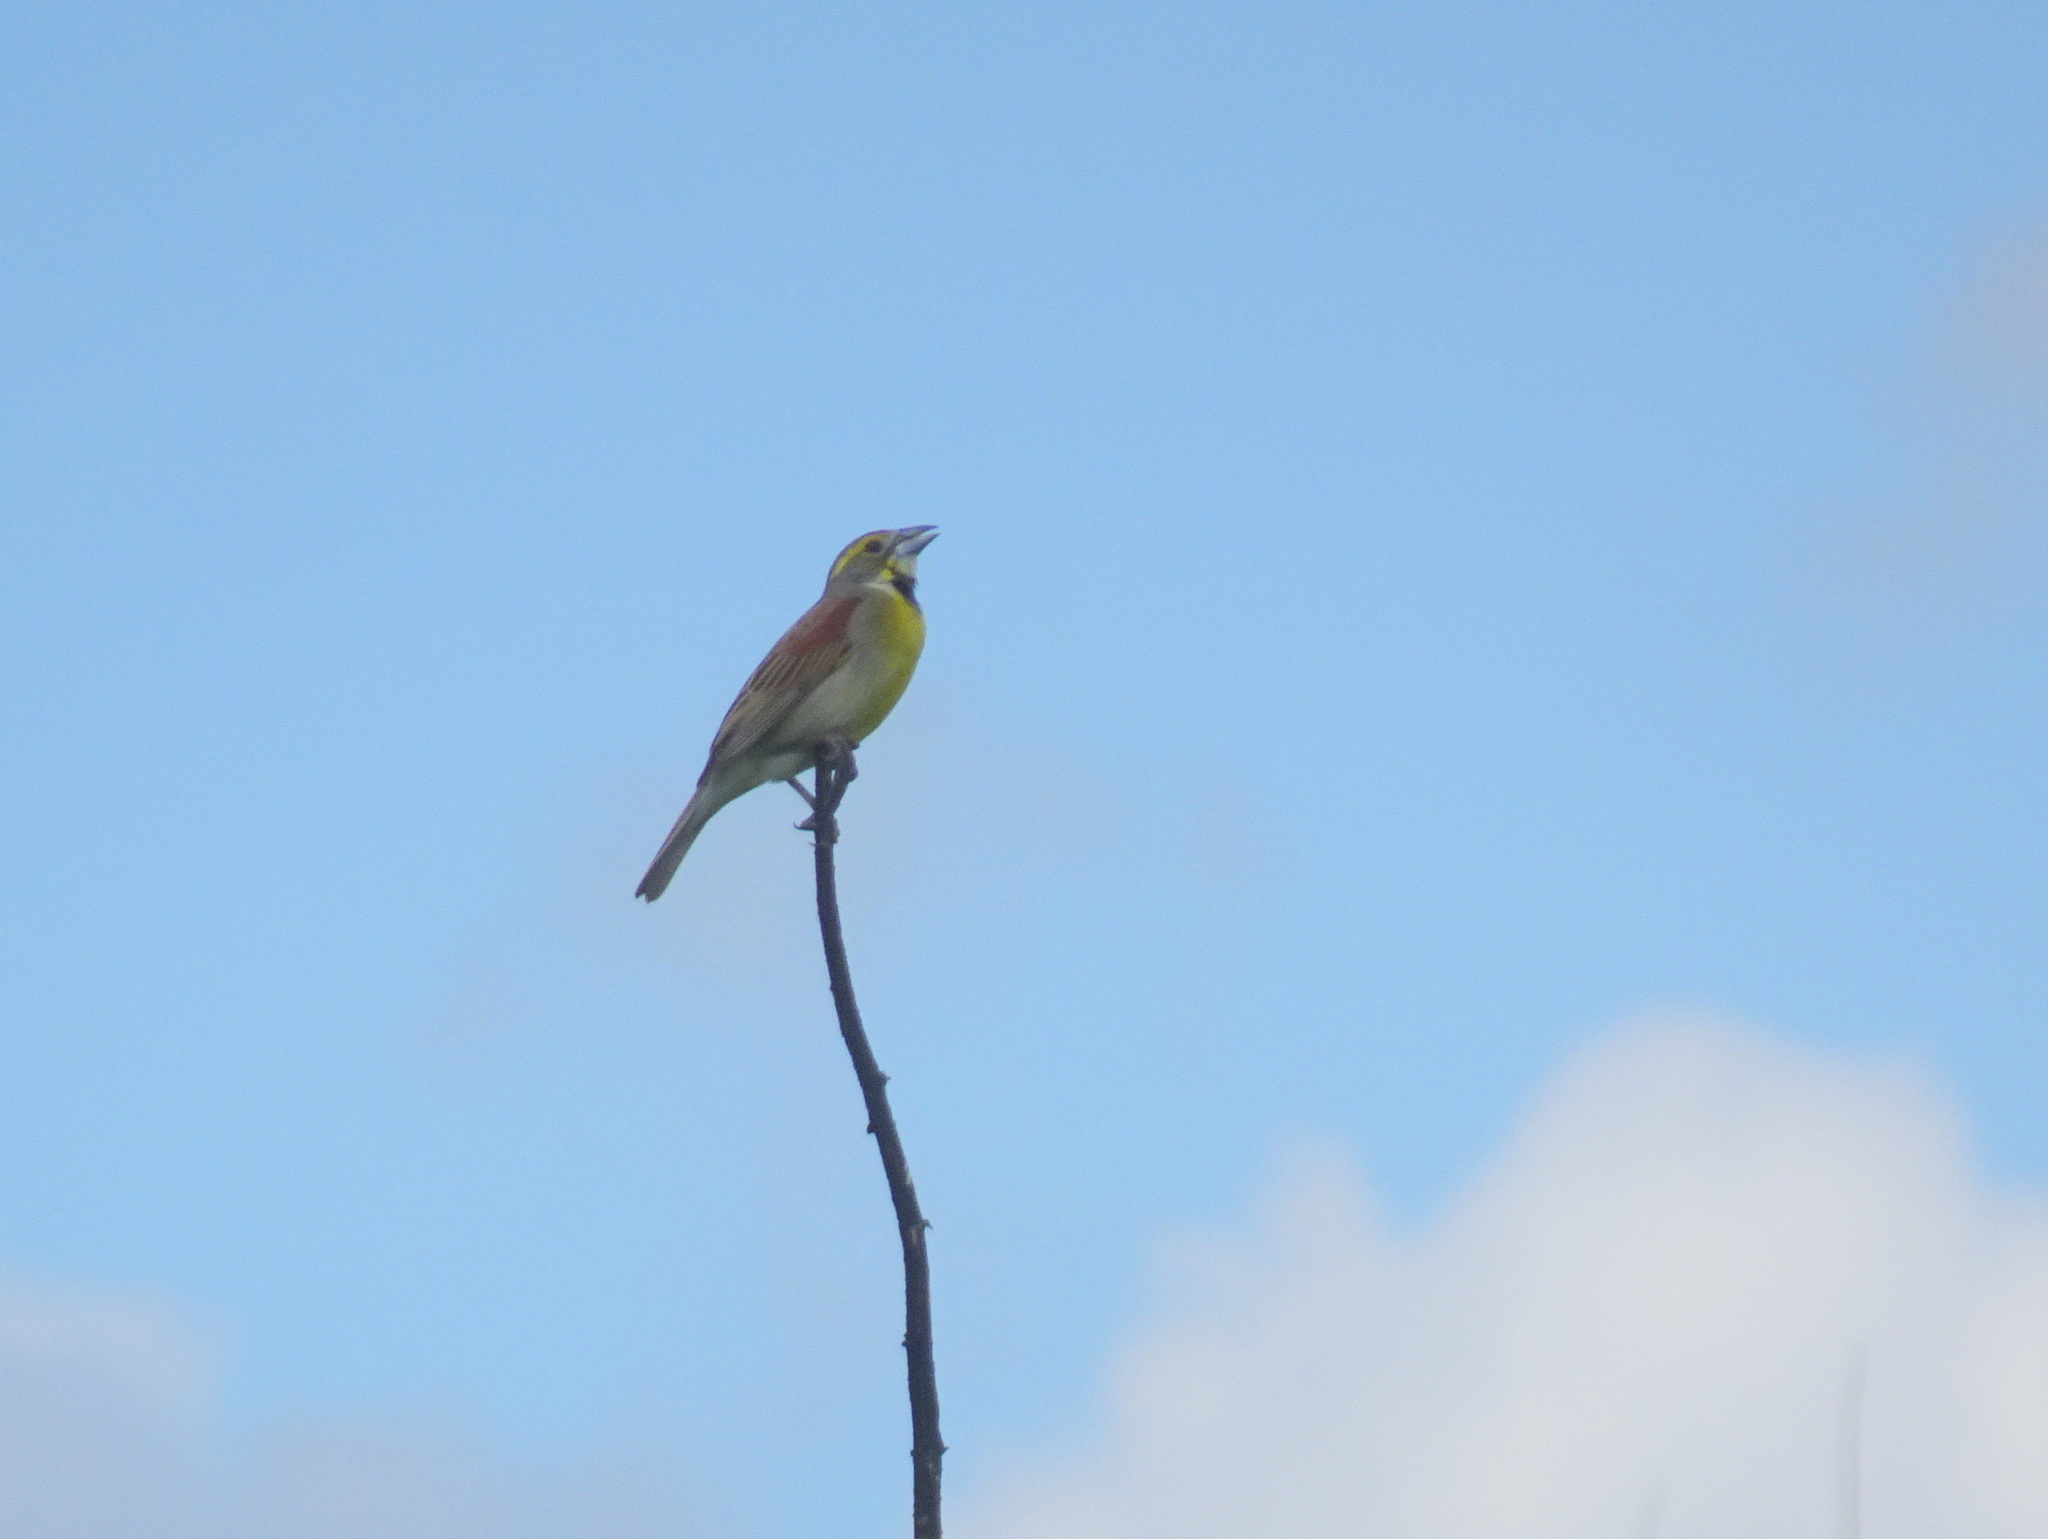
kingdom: Animalia
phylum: Chordata
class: Aves
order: Passeriformes
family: Cardinalidae
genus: Spiza
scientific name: Spiza americana
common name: Dickcissel
